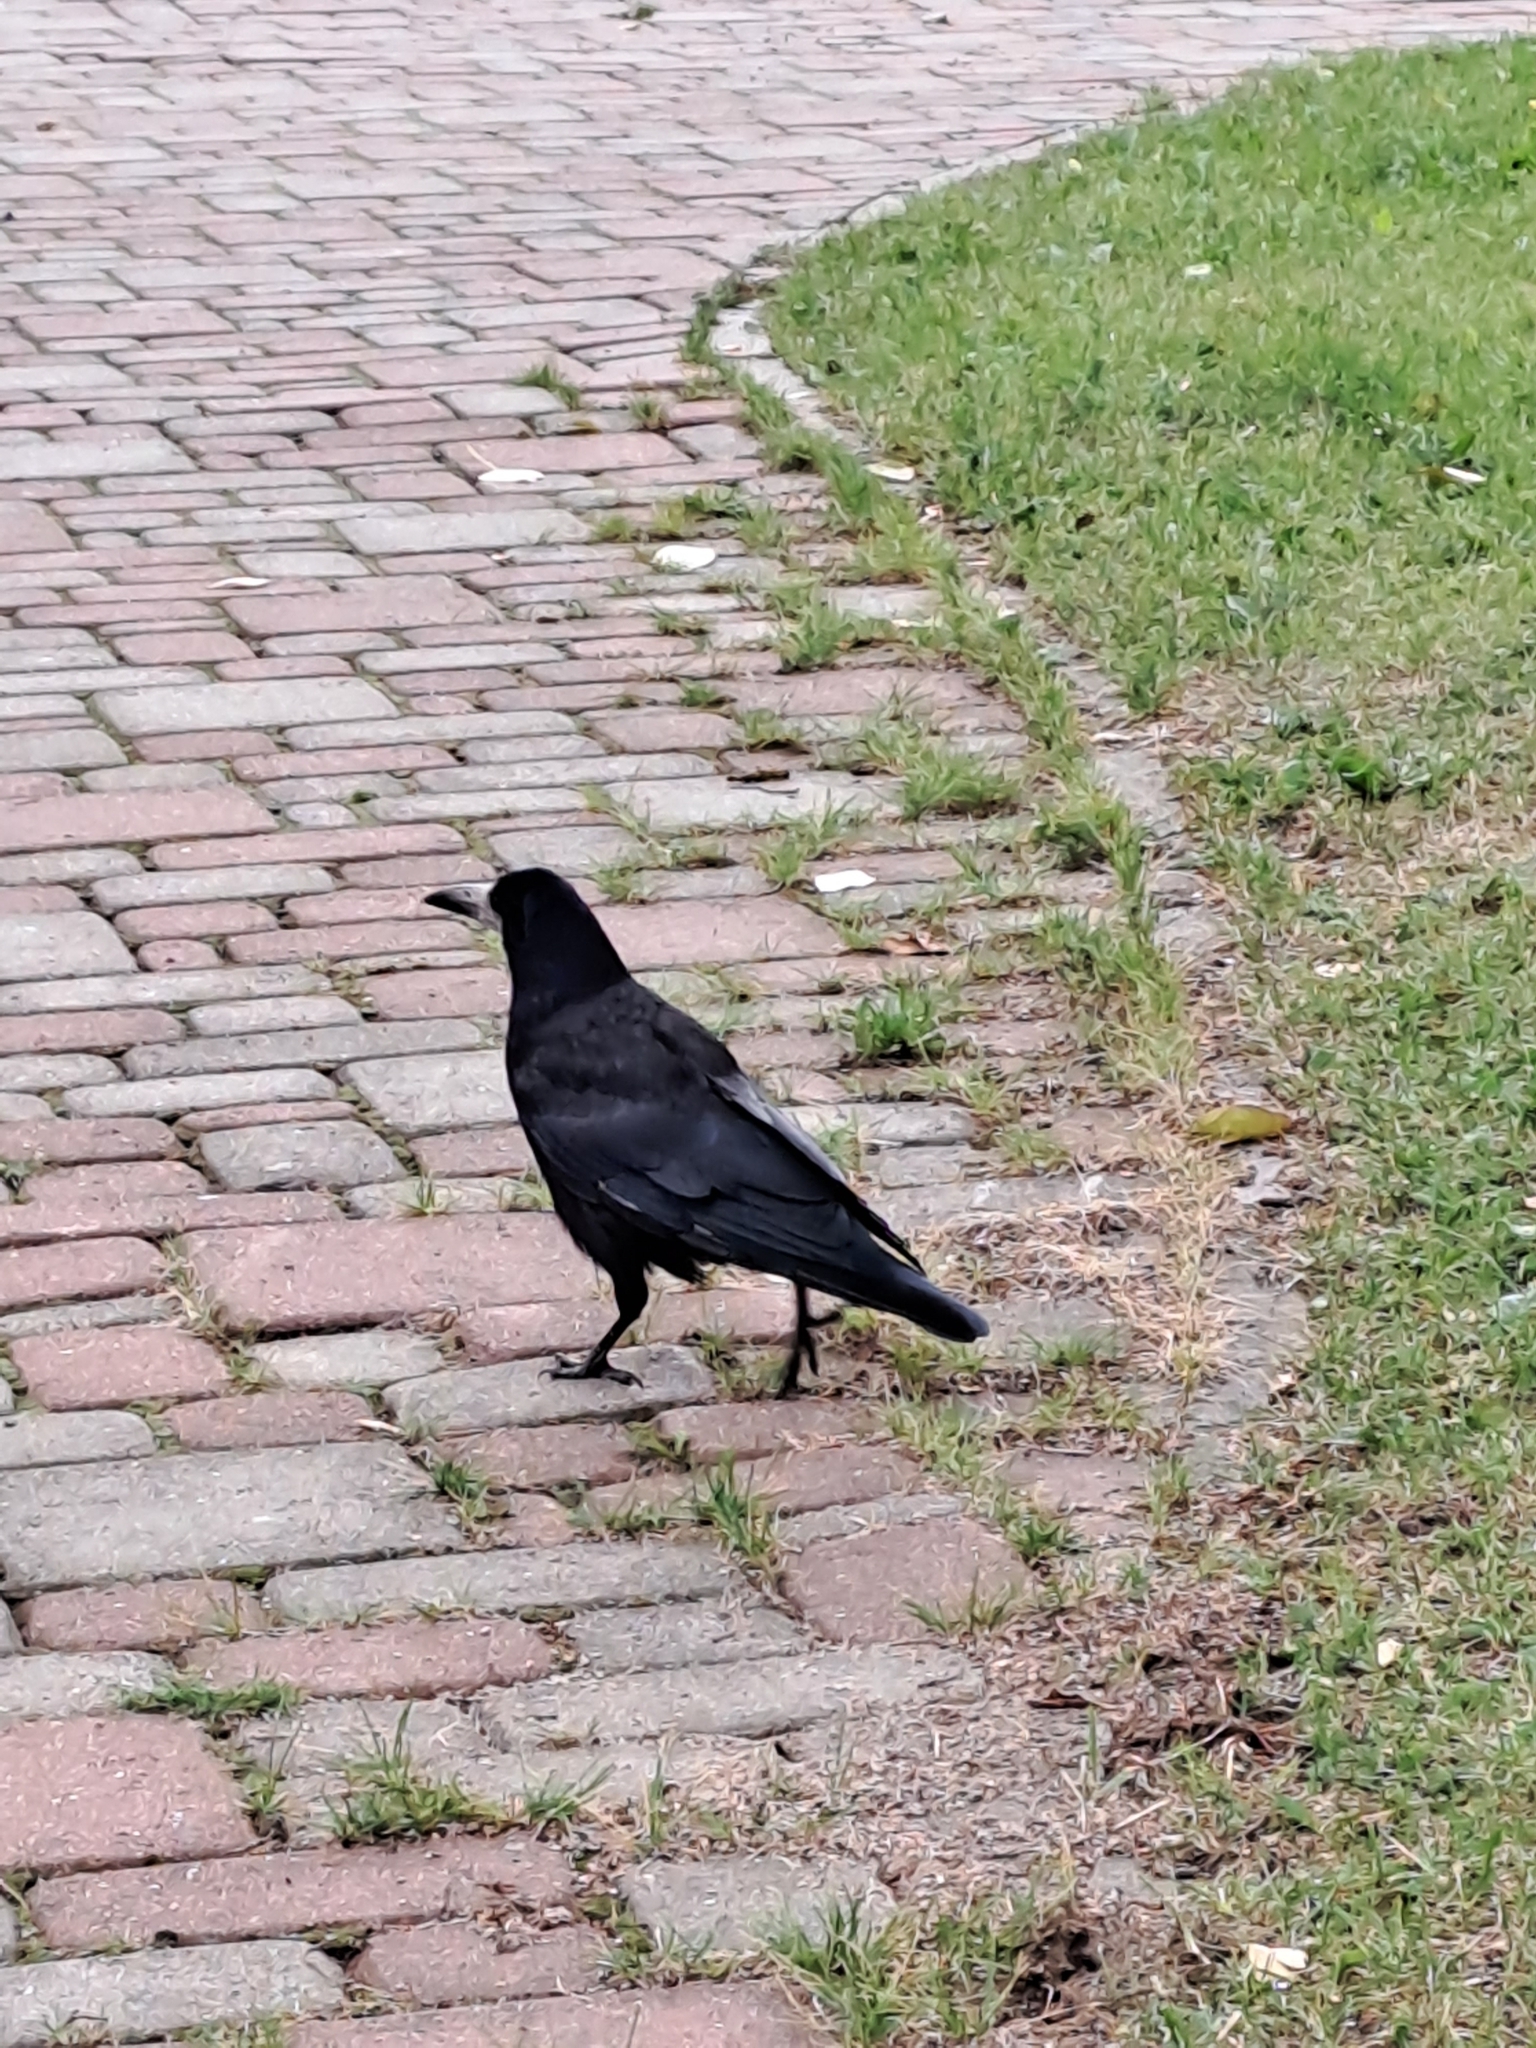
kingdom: Animalia
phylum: Chordata
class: Aves
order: Passeriformes
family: Corvidae
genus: Corvus
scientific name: Corvus frugilegus
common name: Rook
